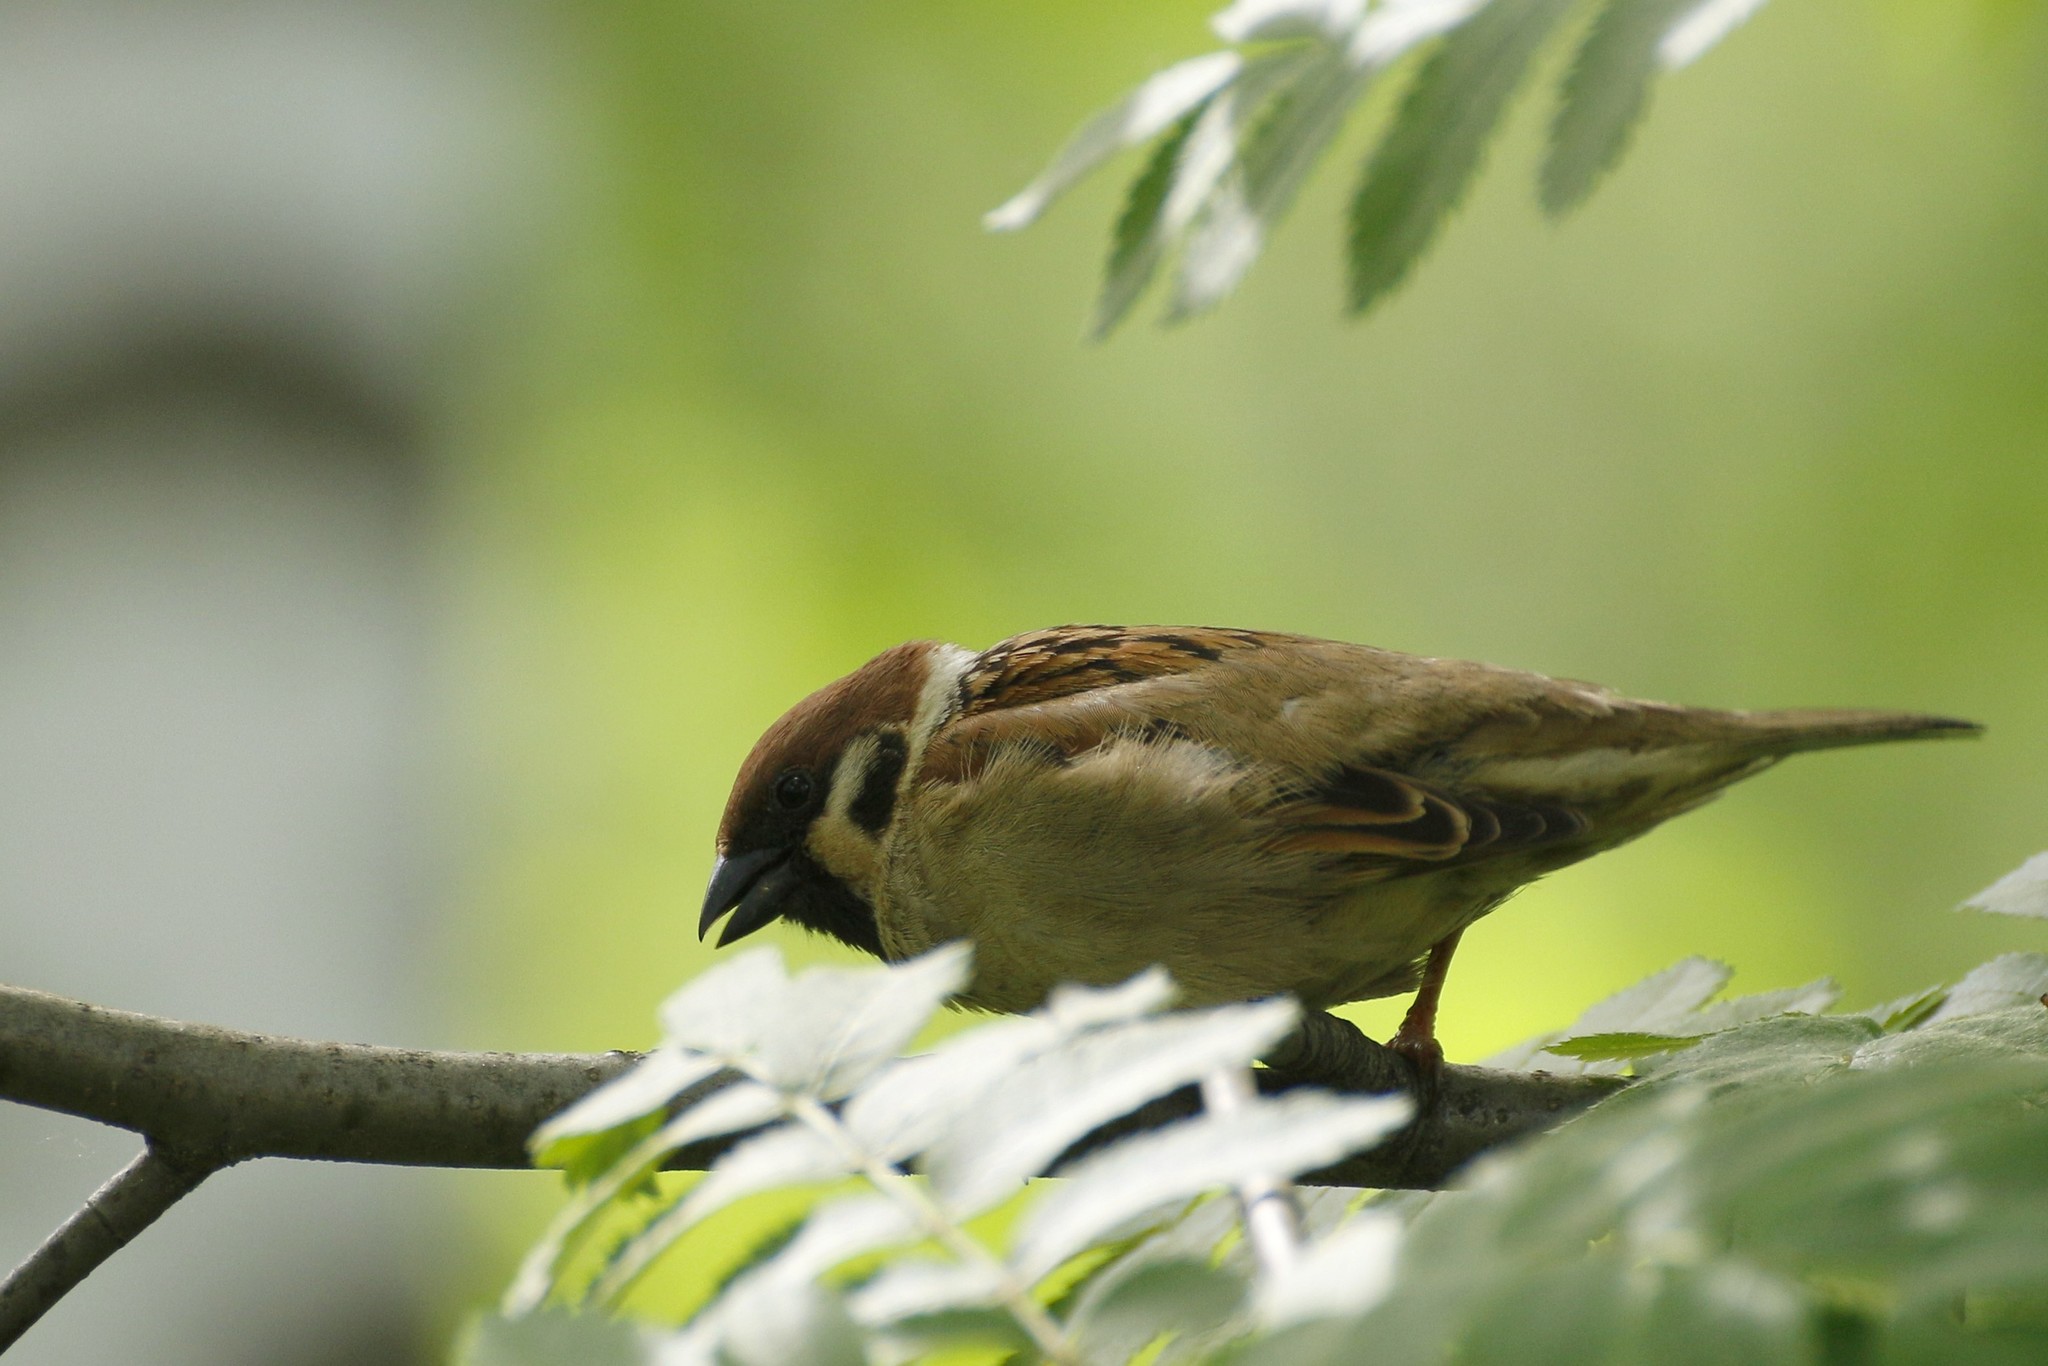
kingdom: Animalia
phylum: Chordata
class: Aves
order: Passeriformes
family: Passeridae
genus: Passer
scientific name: Passer montanus
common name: Eurasian tree sparrow
